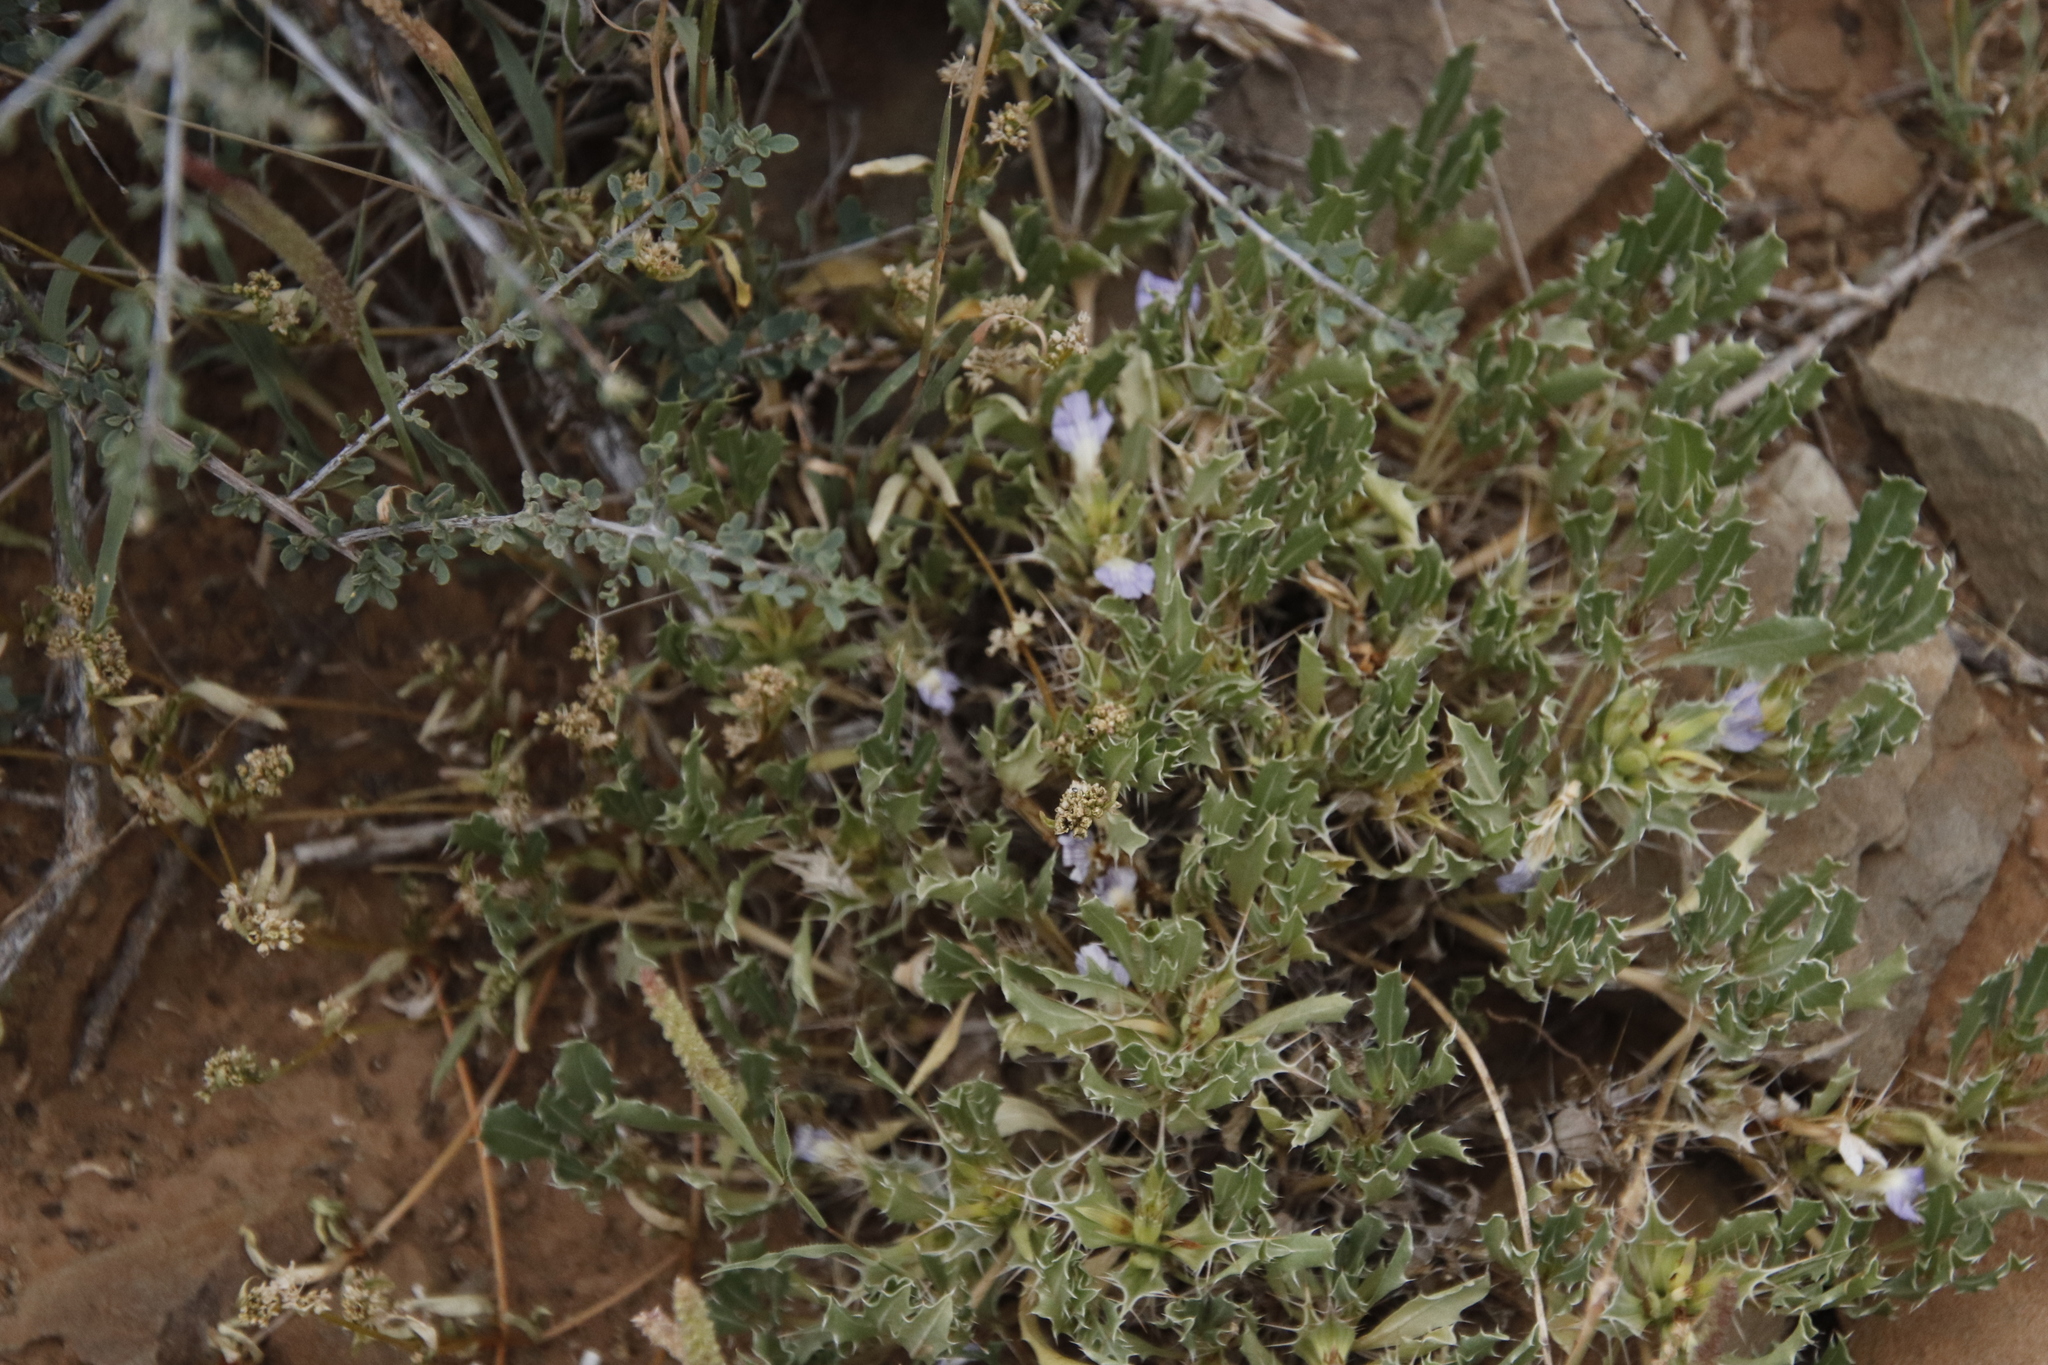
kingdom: Plantae
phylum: Tracheophyta
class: Magnoliopsida
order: Lamiales
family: Acanthaceae
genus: Blepharis
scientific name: Blepharis mitrata
